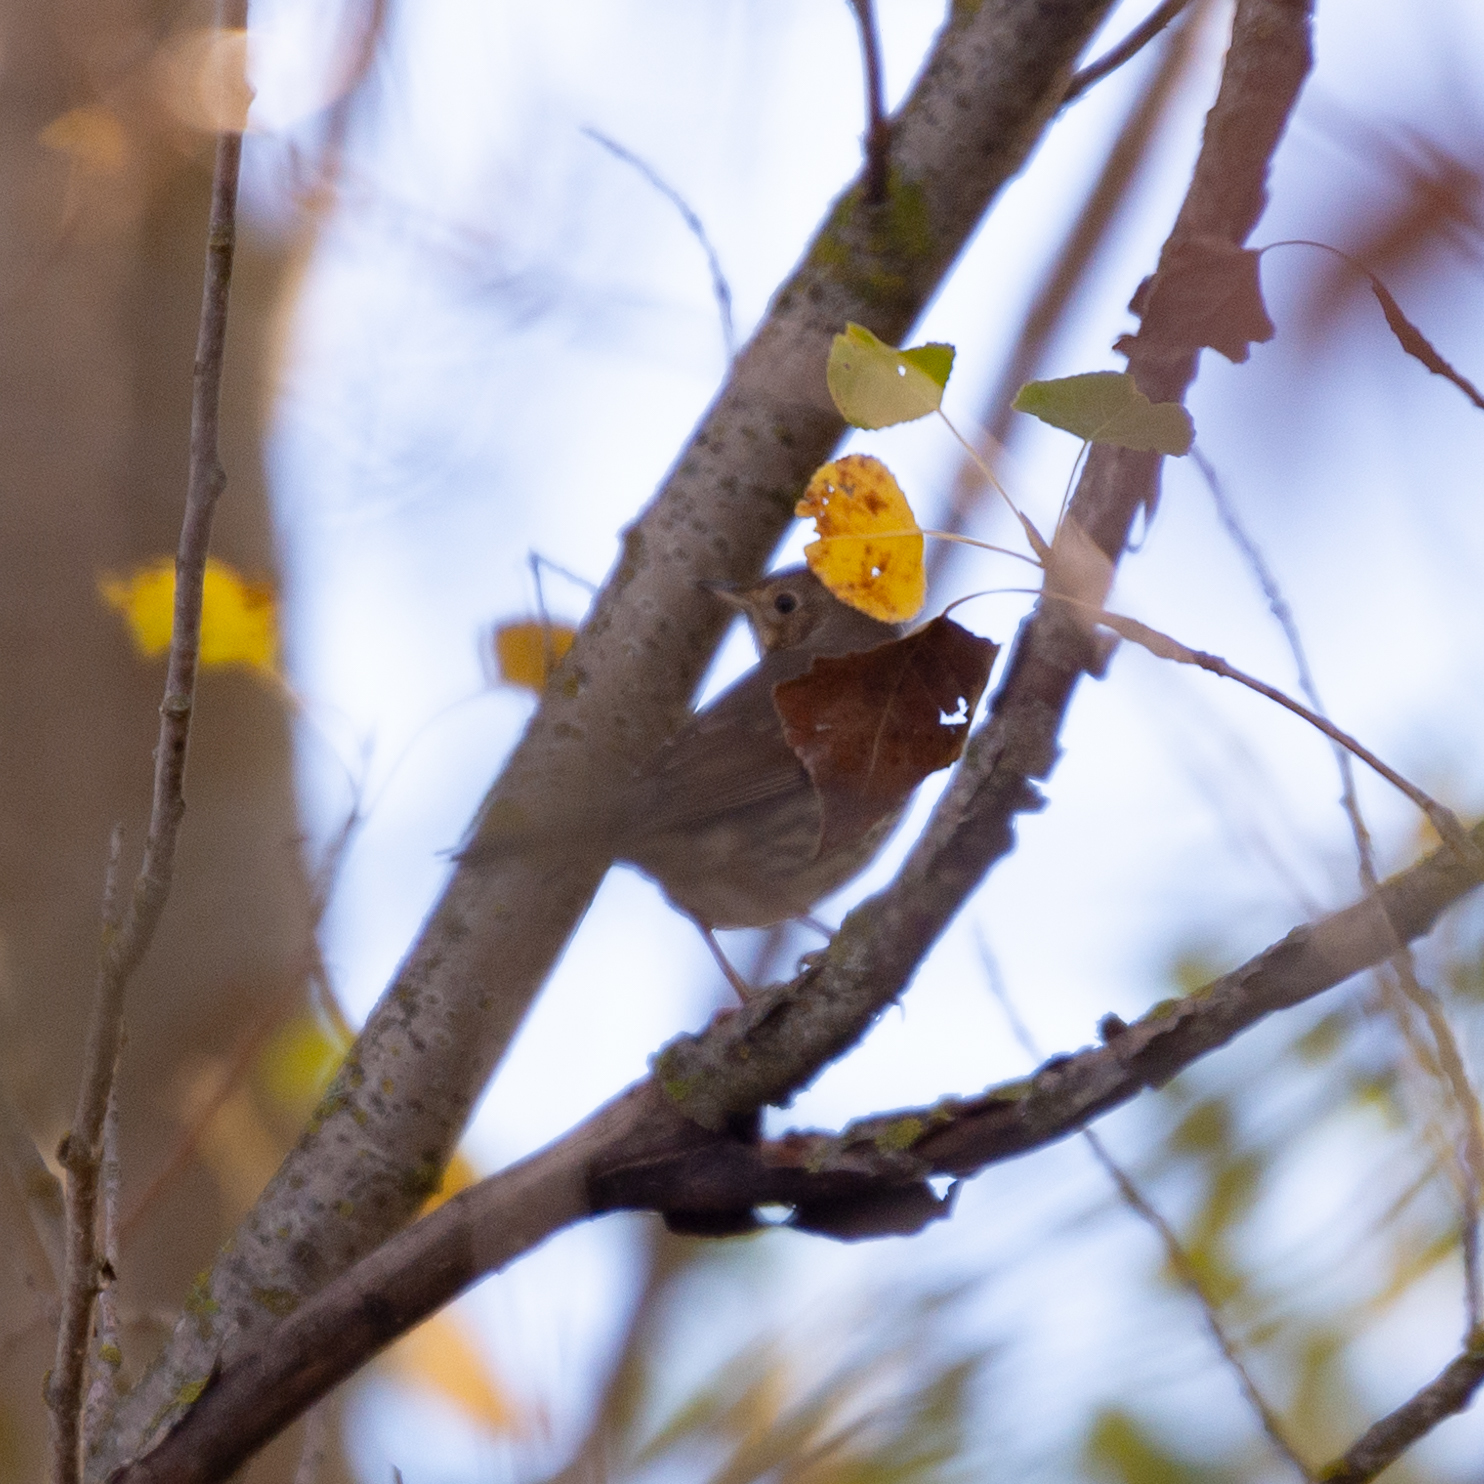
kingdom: Animalia
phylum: Chordata
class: Aves
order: Passeriformes
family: Turdidae
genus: Turdus
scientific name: Turdus philomelos
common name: Song thrush
